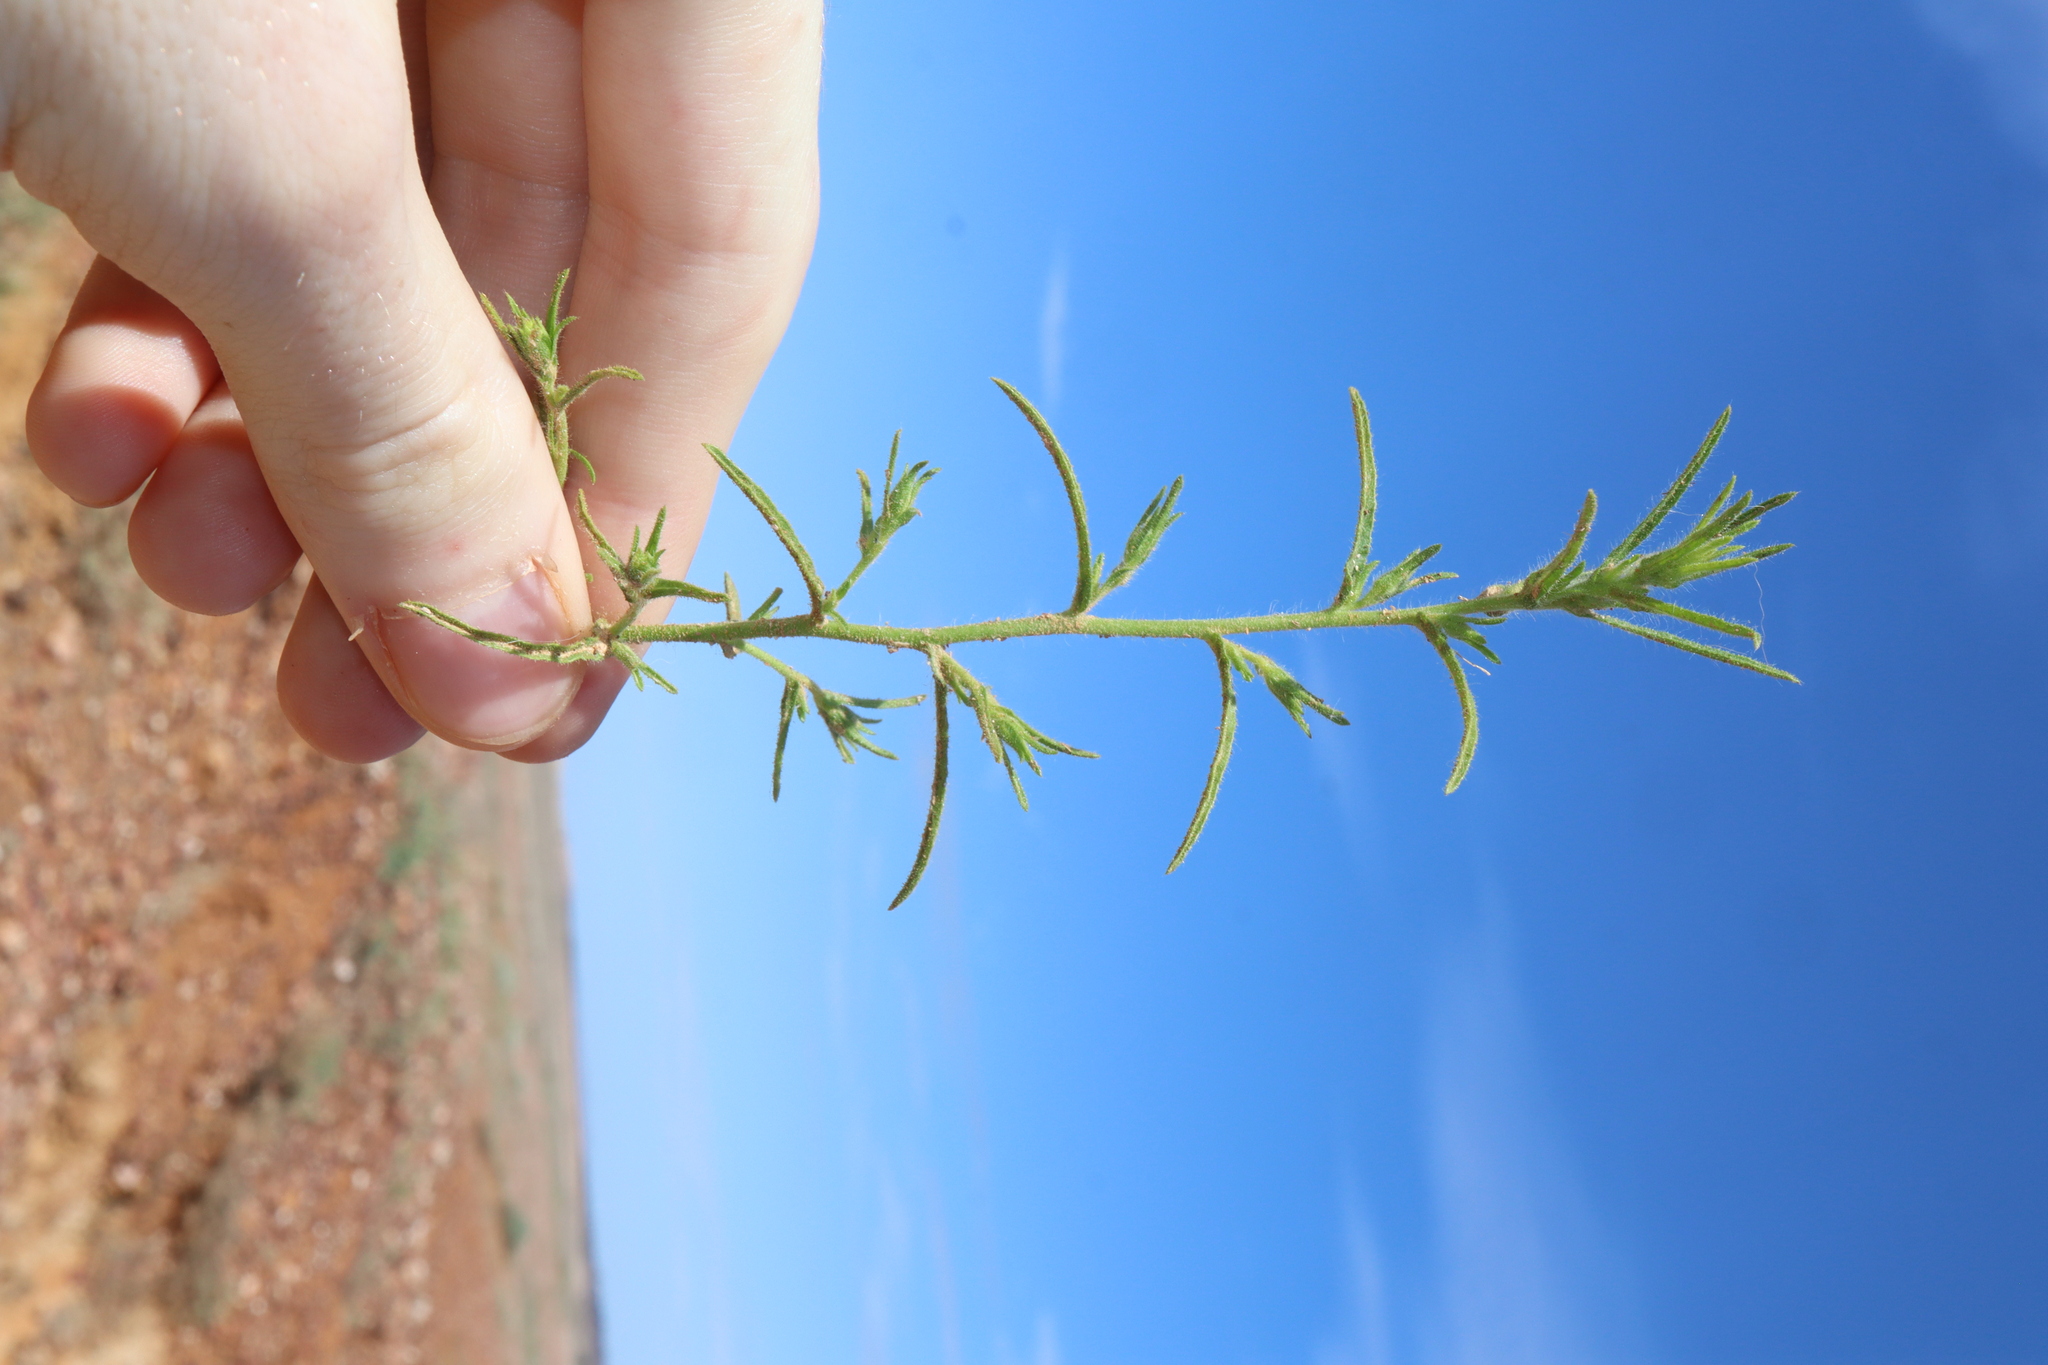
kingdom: Plantae
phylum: Tracheophyta
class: Magnoliopsida
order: Asterales
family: Asteraceae
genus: Dittrichia
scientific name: Dittrichia graveolens
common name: Stinking fleabane
